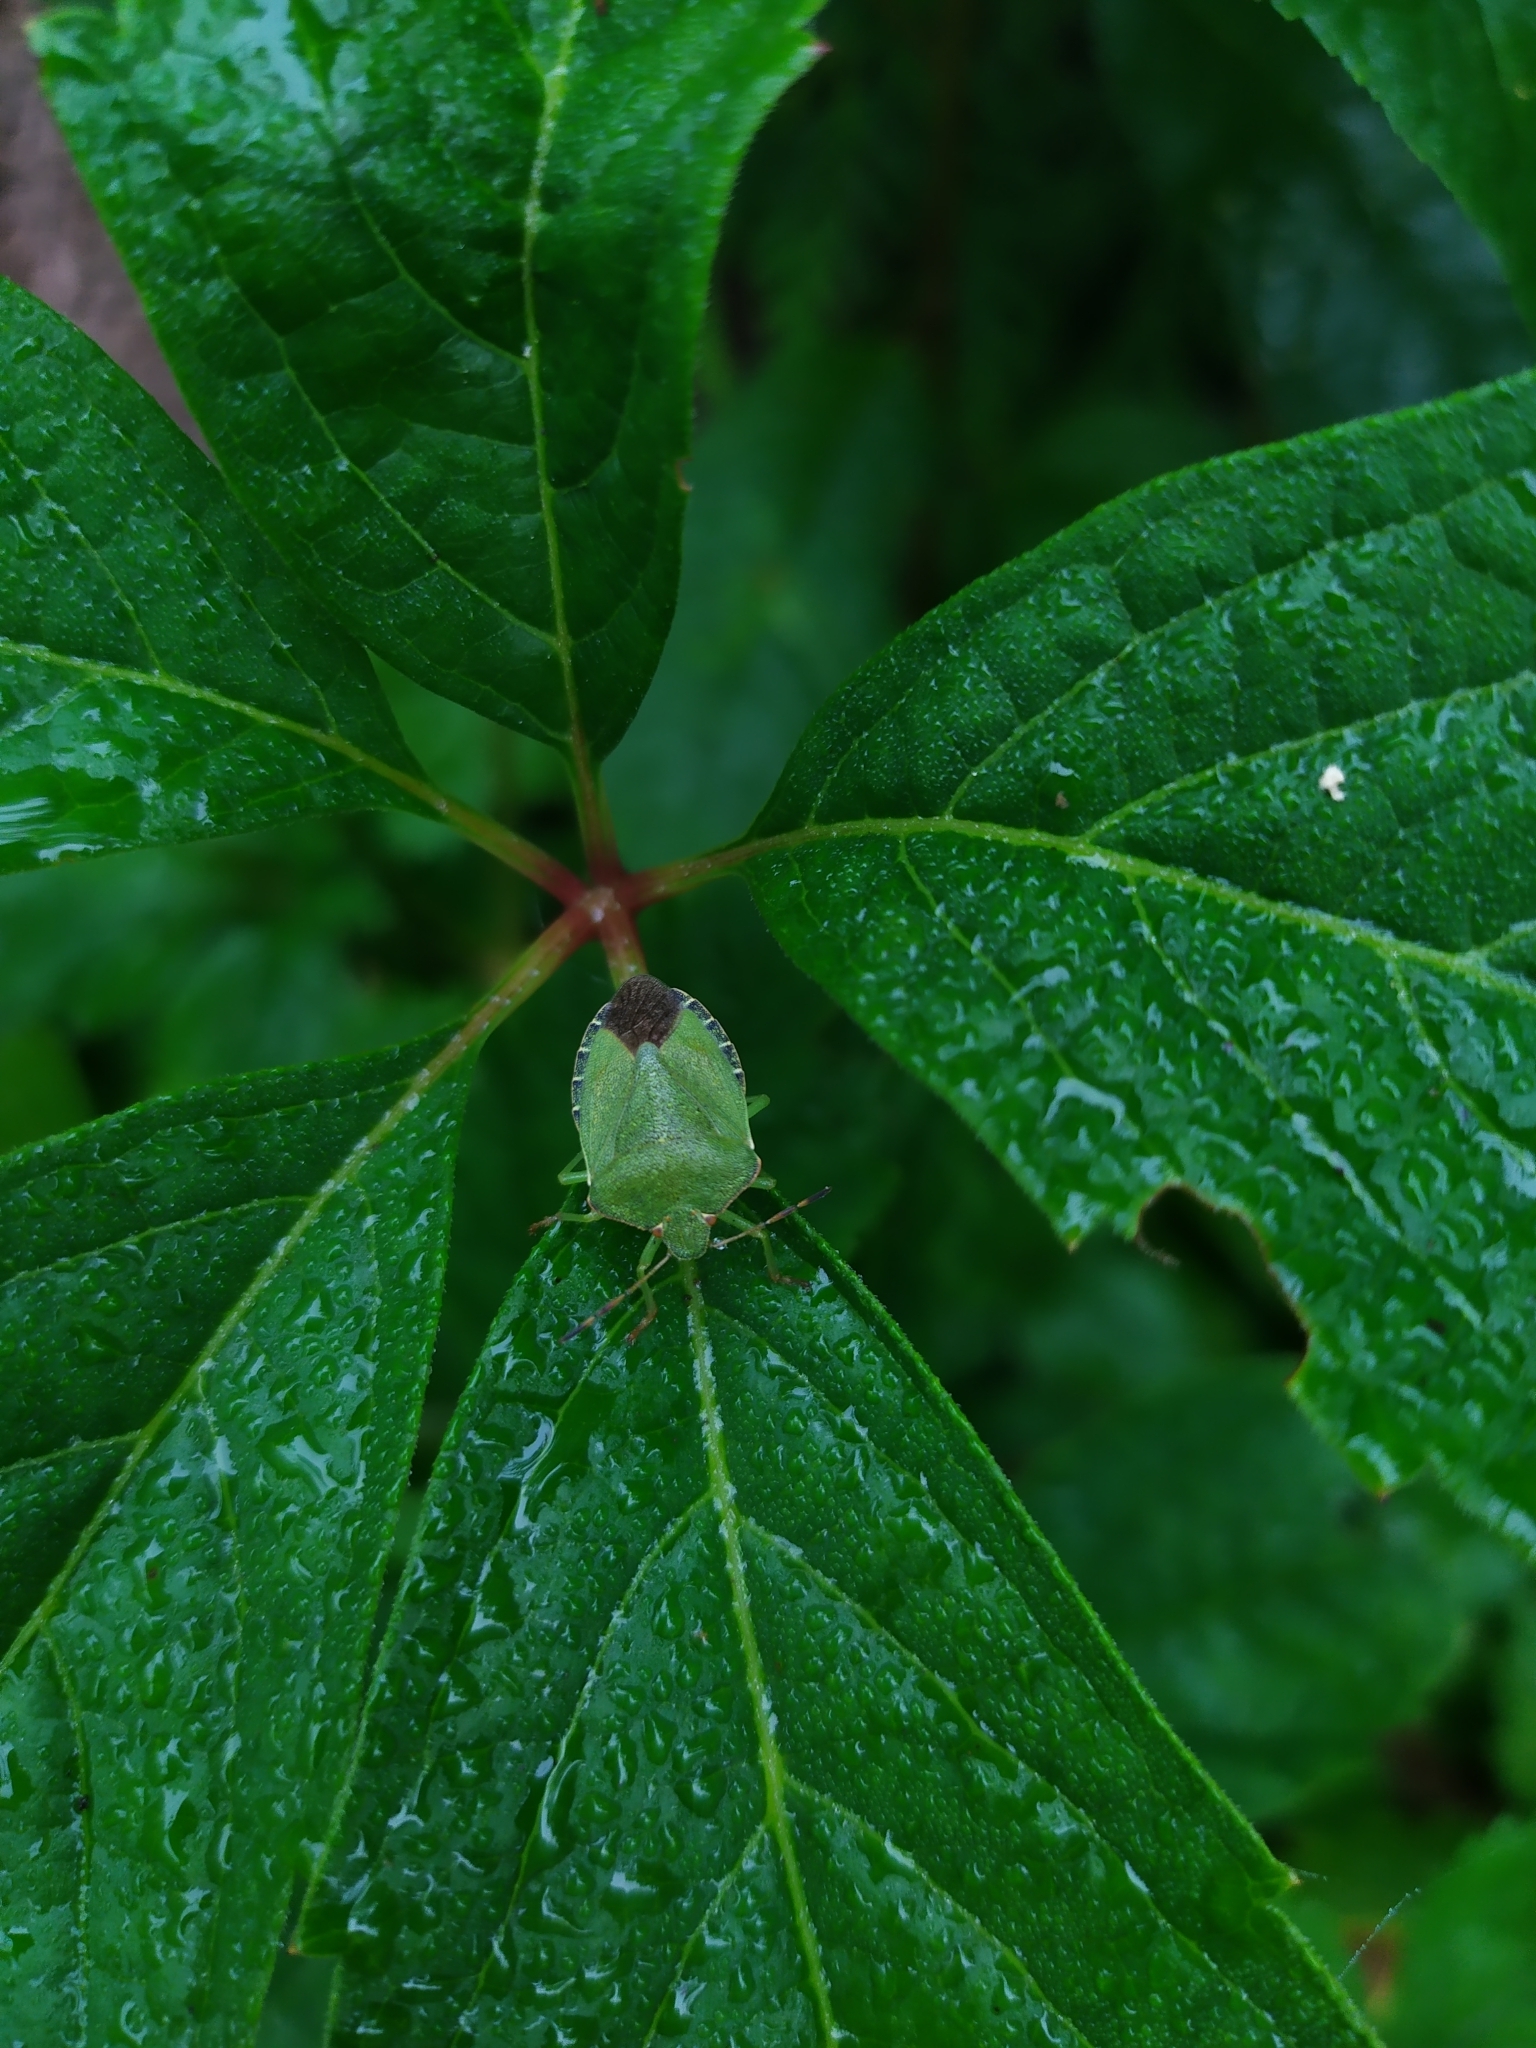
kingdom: Animalia
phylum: Arthropoda
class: Insecta
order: Hemiptera
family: Pentatomidae
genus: Palomena
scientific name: Palomena prasina
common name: Green shieldbug
